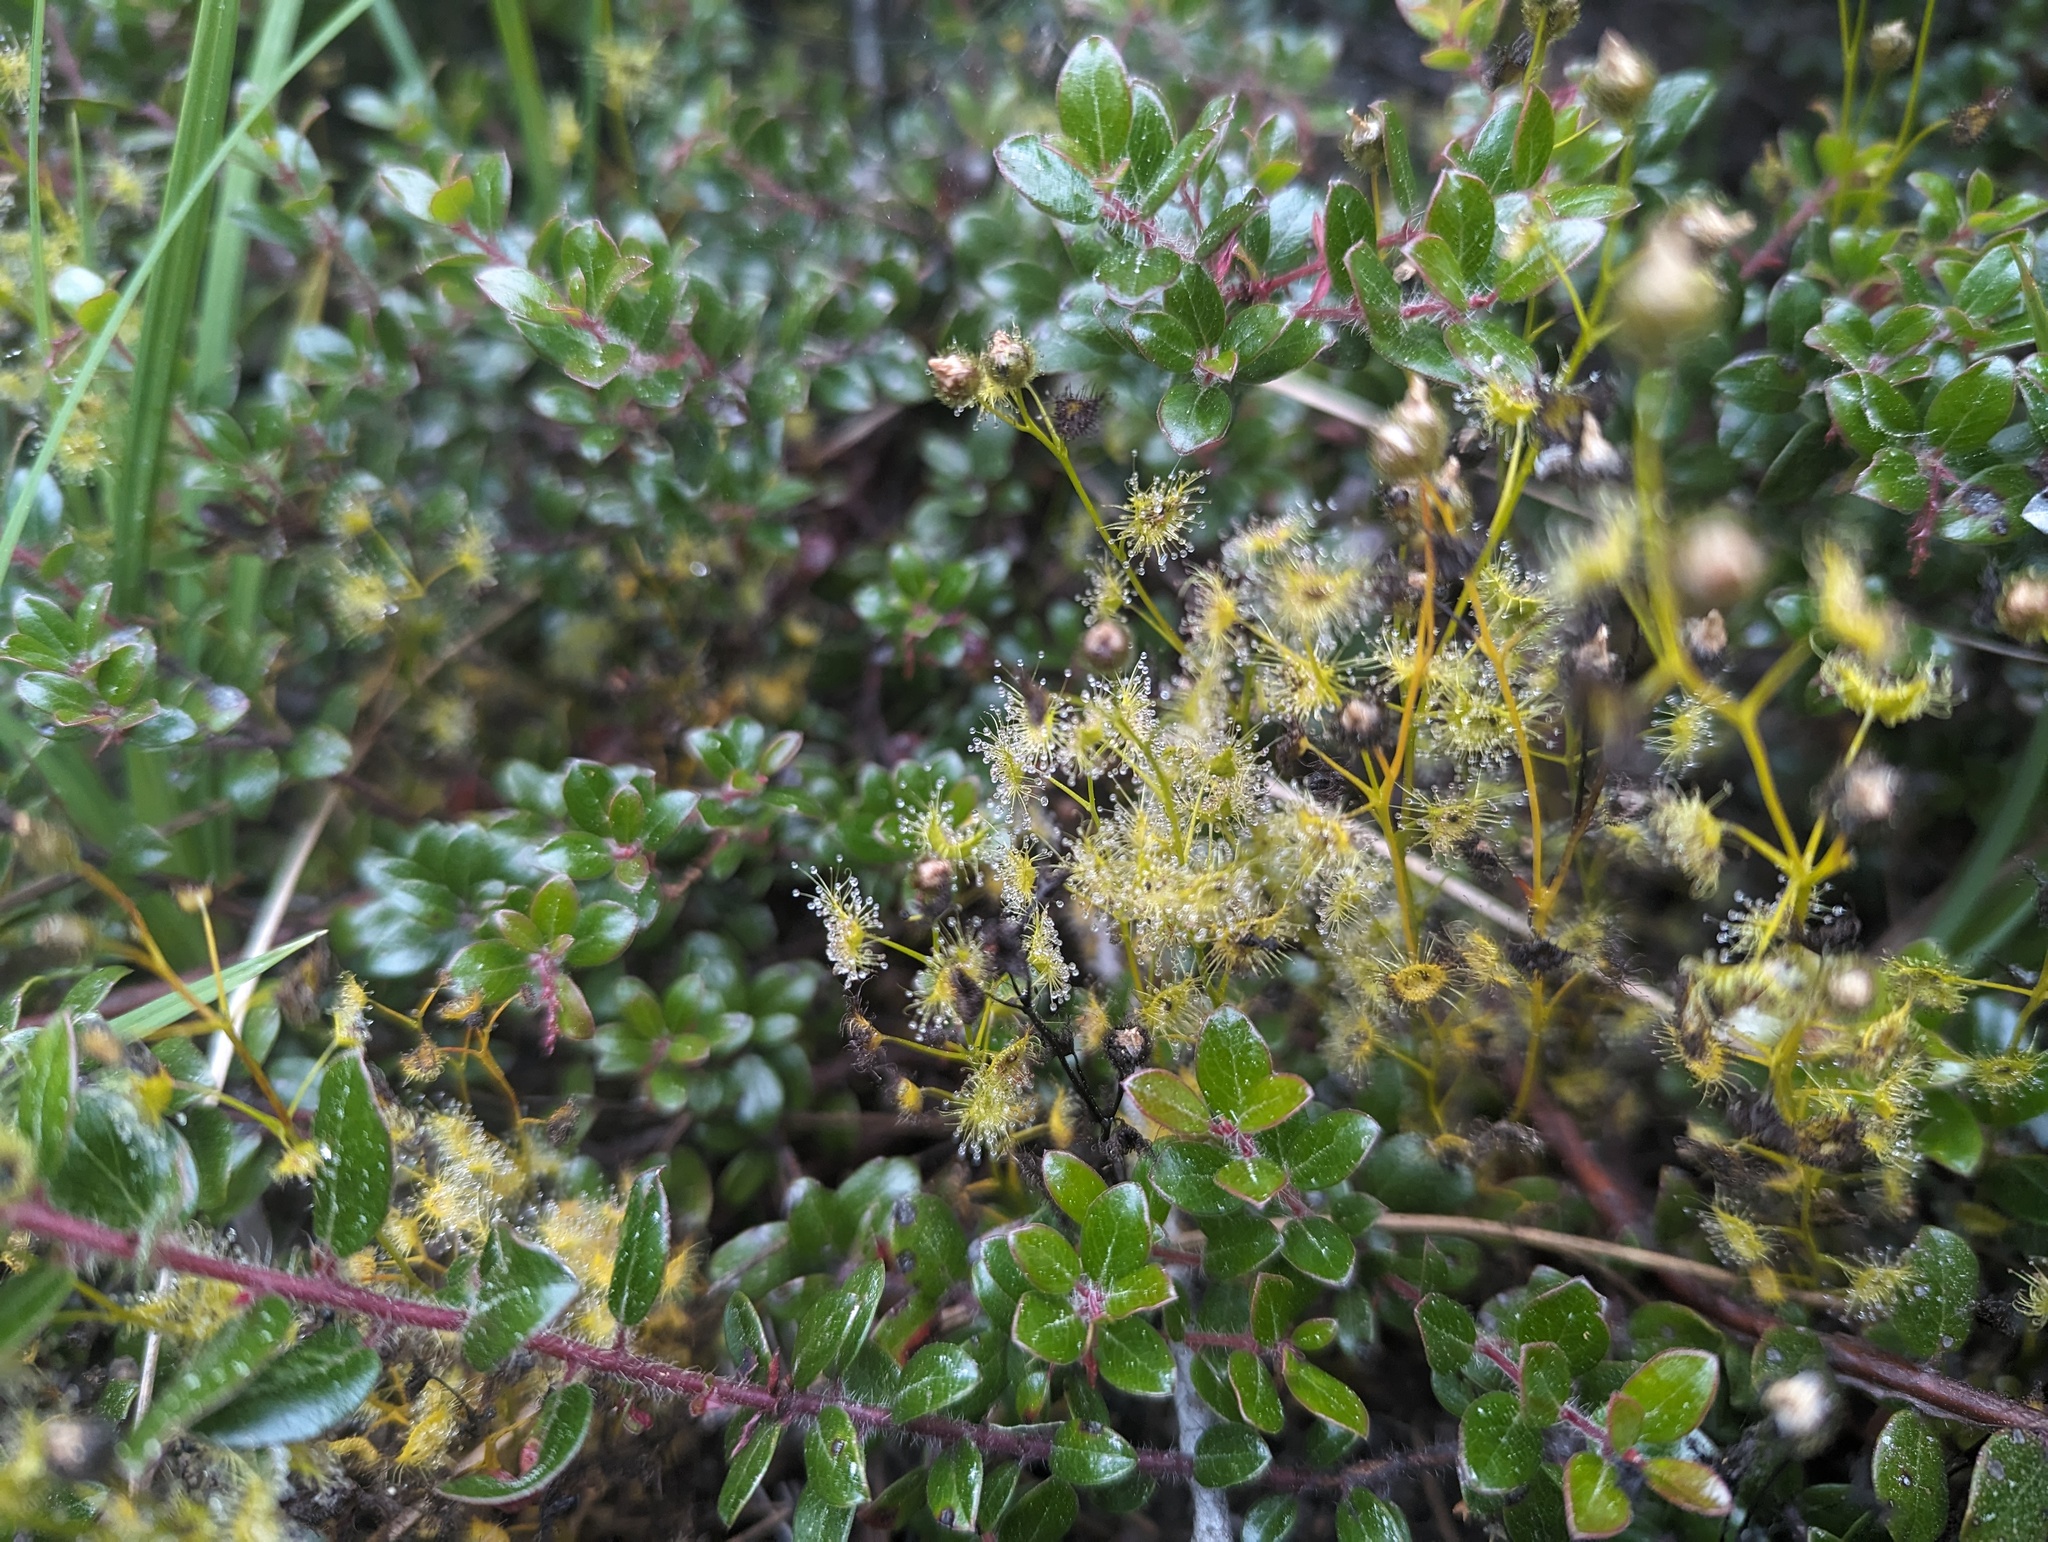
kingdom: Plantae
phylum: Tracheophyta
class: Magnoliopsida
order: Caryophyllales
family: Droseraceae
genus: Drosera
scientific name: Drosera gunniana
